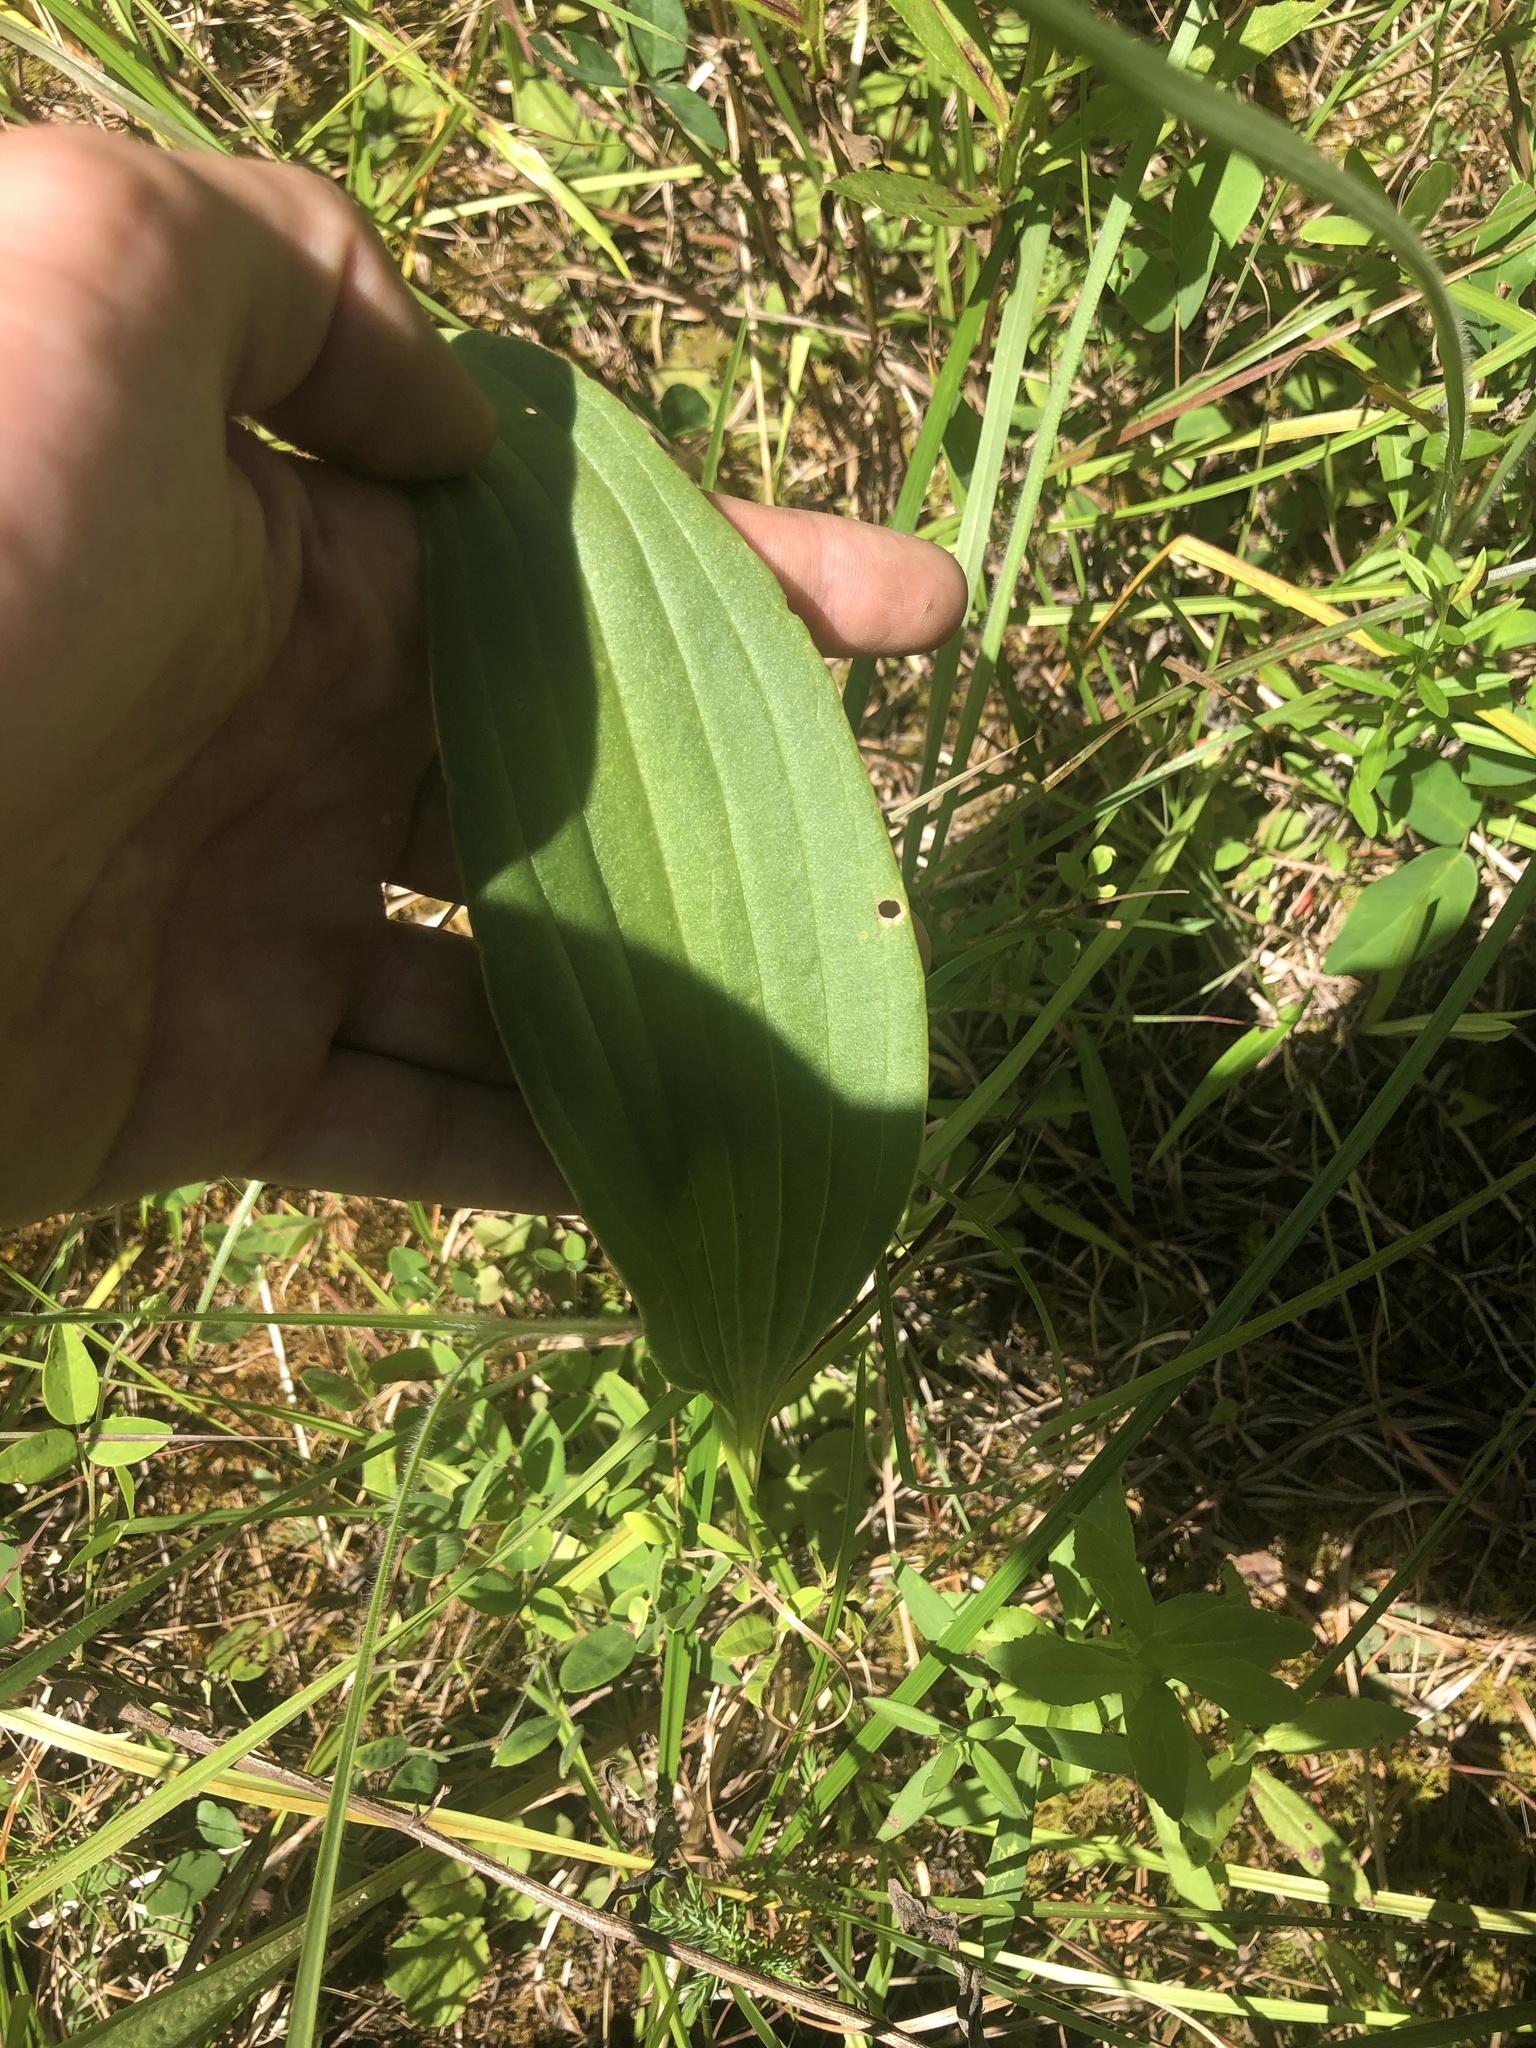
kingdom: Plantae
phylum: Tracheophyta
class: Magnoliopsida
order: Asterales
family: Asteraceae
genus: Arnoglossum
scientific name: Arnoglossum plantagineum
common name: Groove-stemmed indian-plantain
